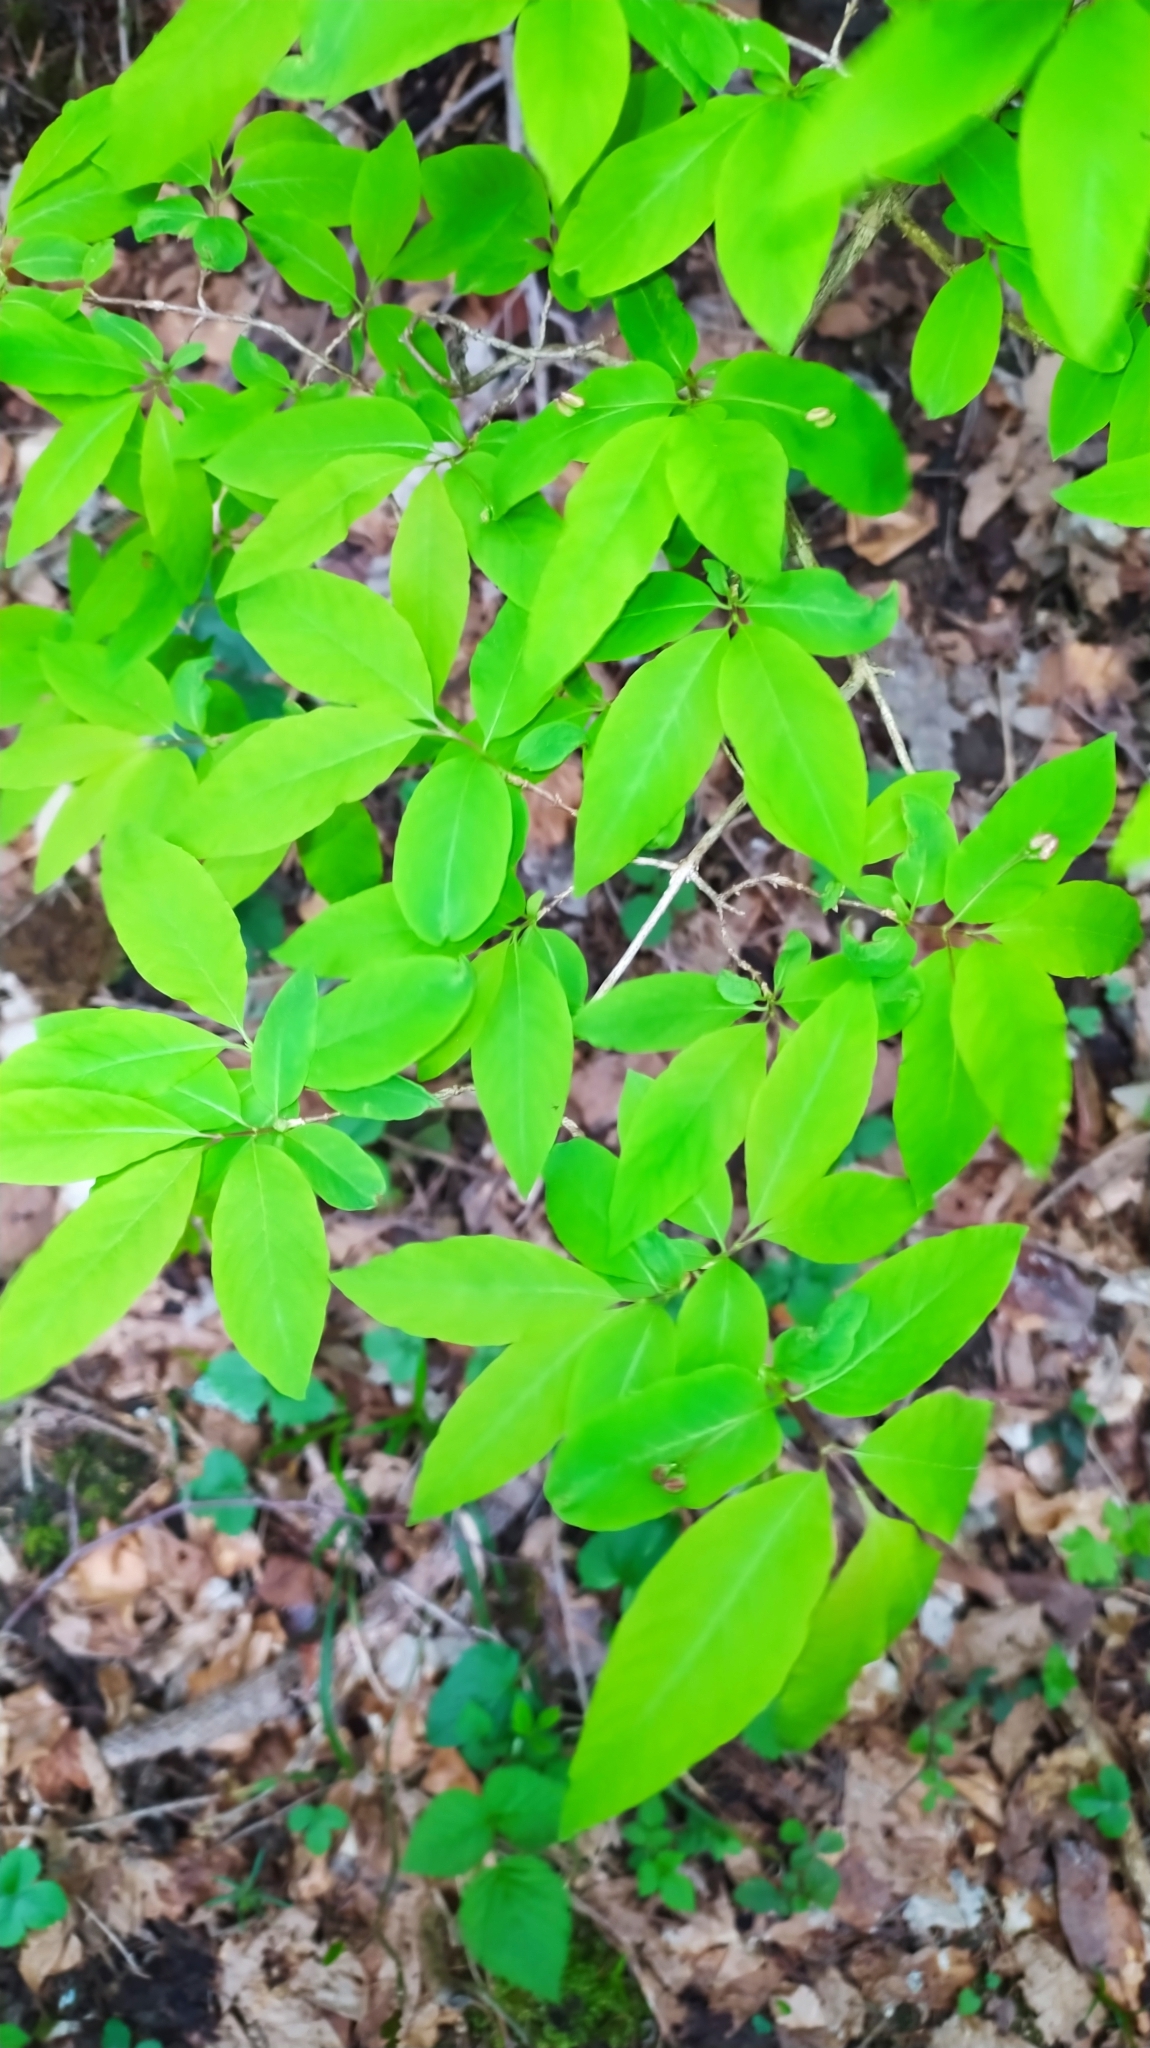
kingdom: Plantae
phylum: Tracheophyta
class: Magnoliopsida
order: Dipsacales
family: Caprifoliaceae
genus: Lonicera
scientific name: Lonicera nigra
